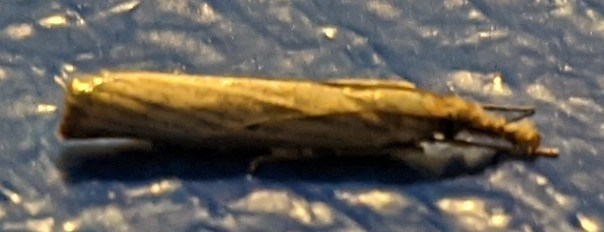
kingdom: Animalia
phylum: Arthropoda
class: Insecta
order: Lepidoptera
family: Crambidae
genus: Agriphila
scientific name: Agriphila vulgivagellus
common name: Vagabond crambus moth
